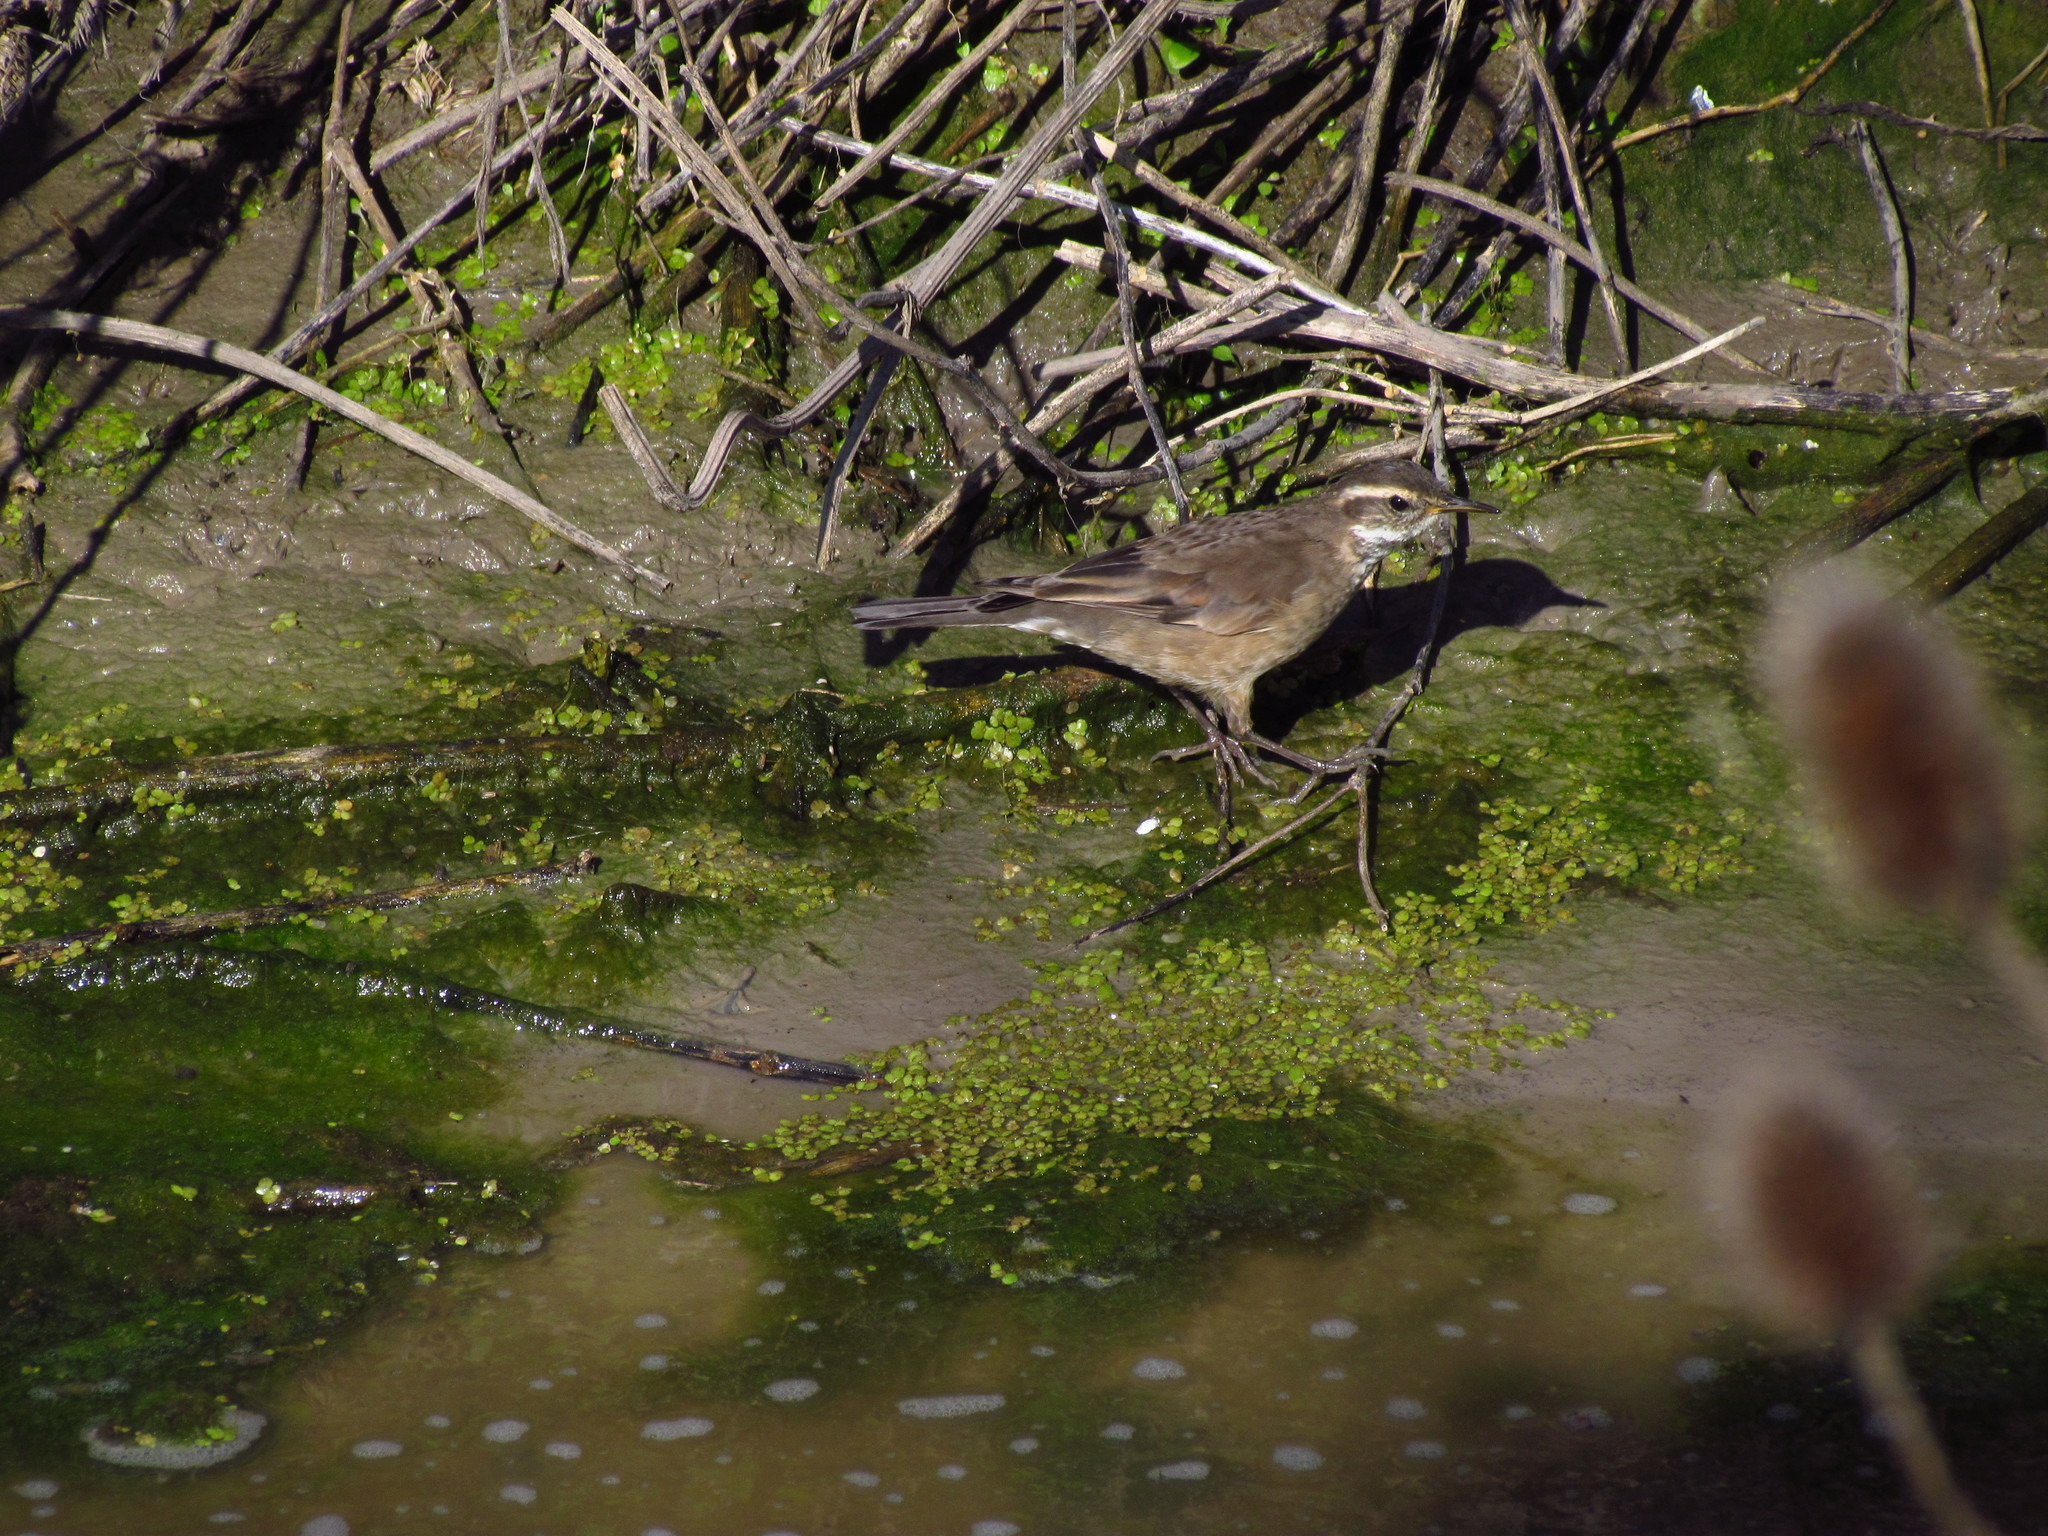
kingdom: Animalia
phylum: Chordata
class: Aves
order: Passeriformes
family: Furnariidae
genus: Cinclodes
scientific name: Cinclodes fuscus
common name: Buff-winged cinclodes
